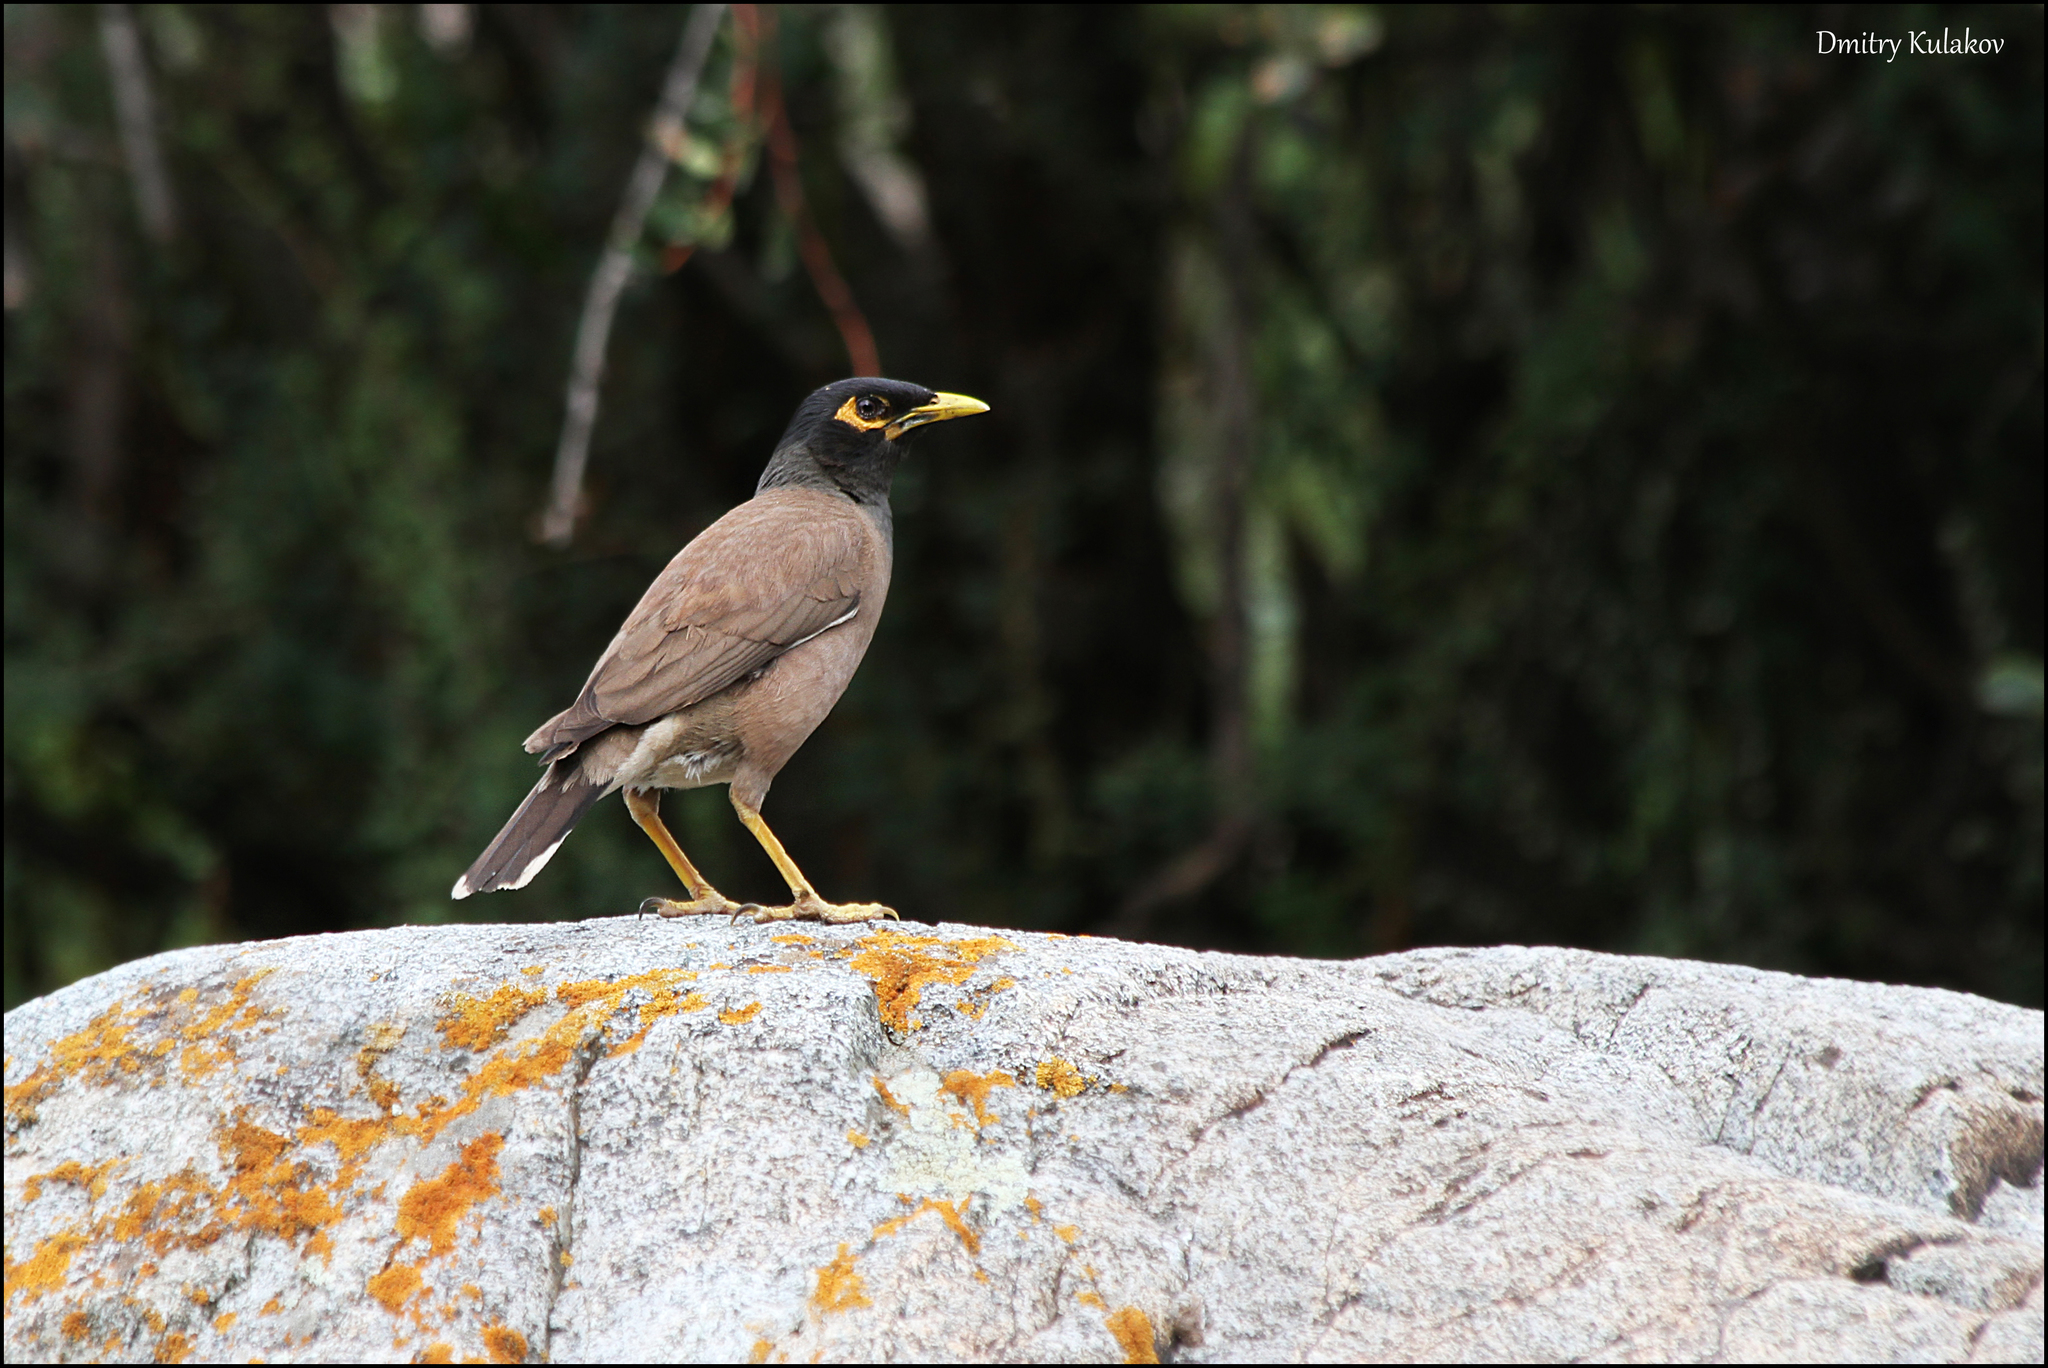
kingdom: Animalia
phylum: Chordata
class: Aves
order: Passeriformes
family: Sturnidae
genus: Acridotheres
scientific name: Acridotheres tristis
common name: Common myna
